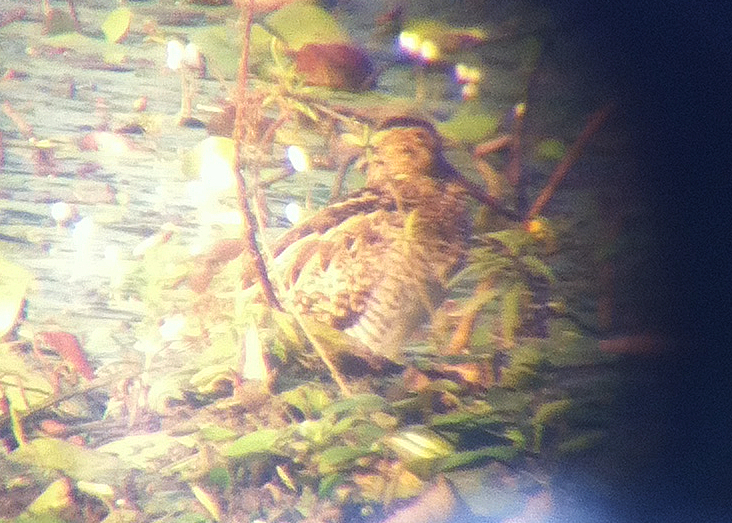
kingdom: Animalia
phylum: Chordata
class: Aves
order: Charadriiformes
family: Scolopacidae
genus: Gallinago
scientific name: Gallinago hardwickii
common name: Latham's snipe
